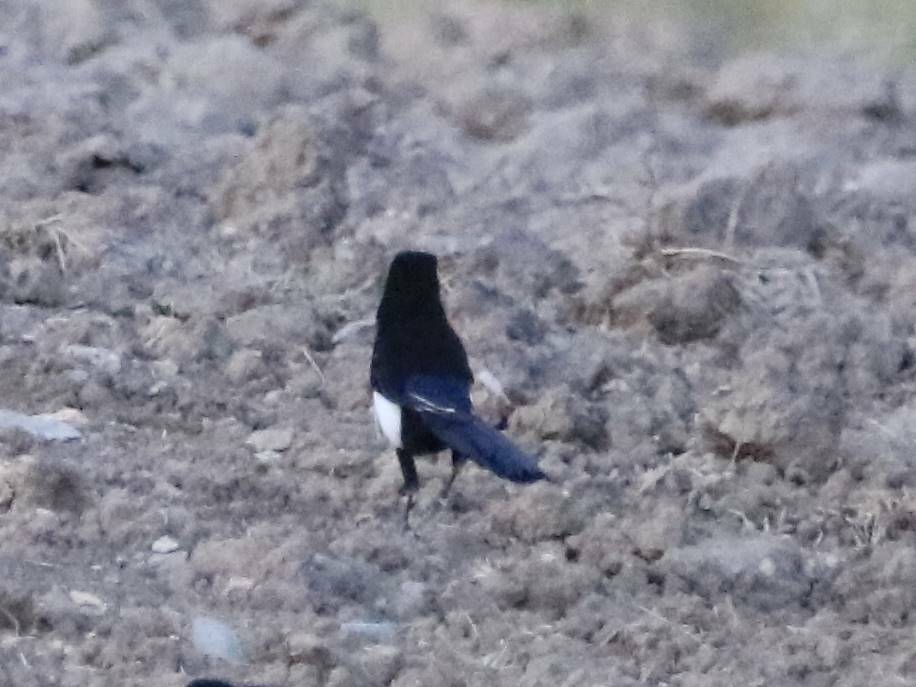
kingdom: Animalia
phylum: Chordata
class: Aves
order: Passeriformes
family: Corvidae
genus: Pica
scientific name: Pica mauritanica
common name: Maghreb magpie
